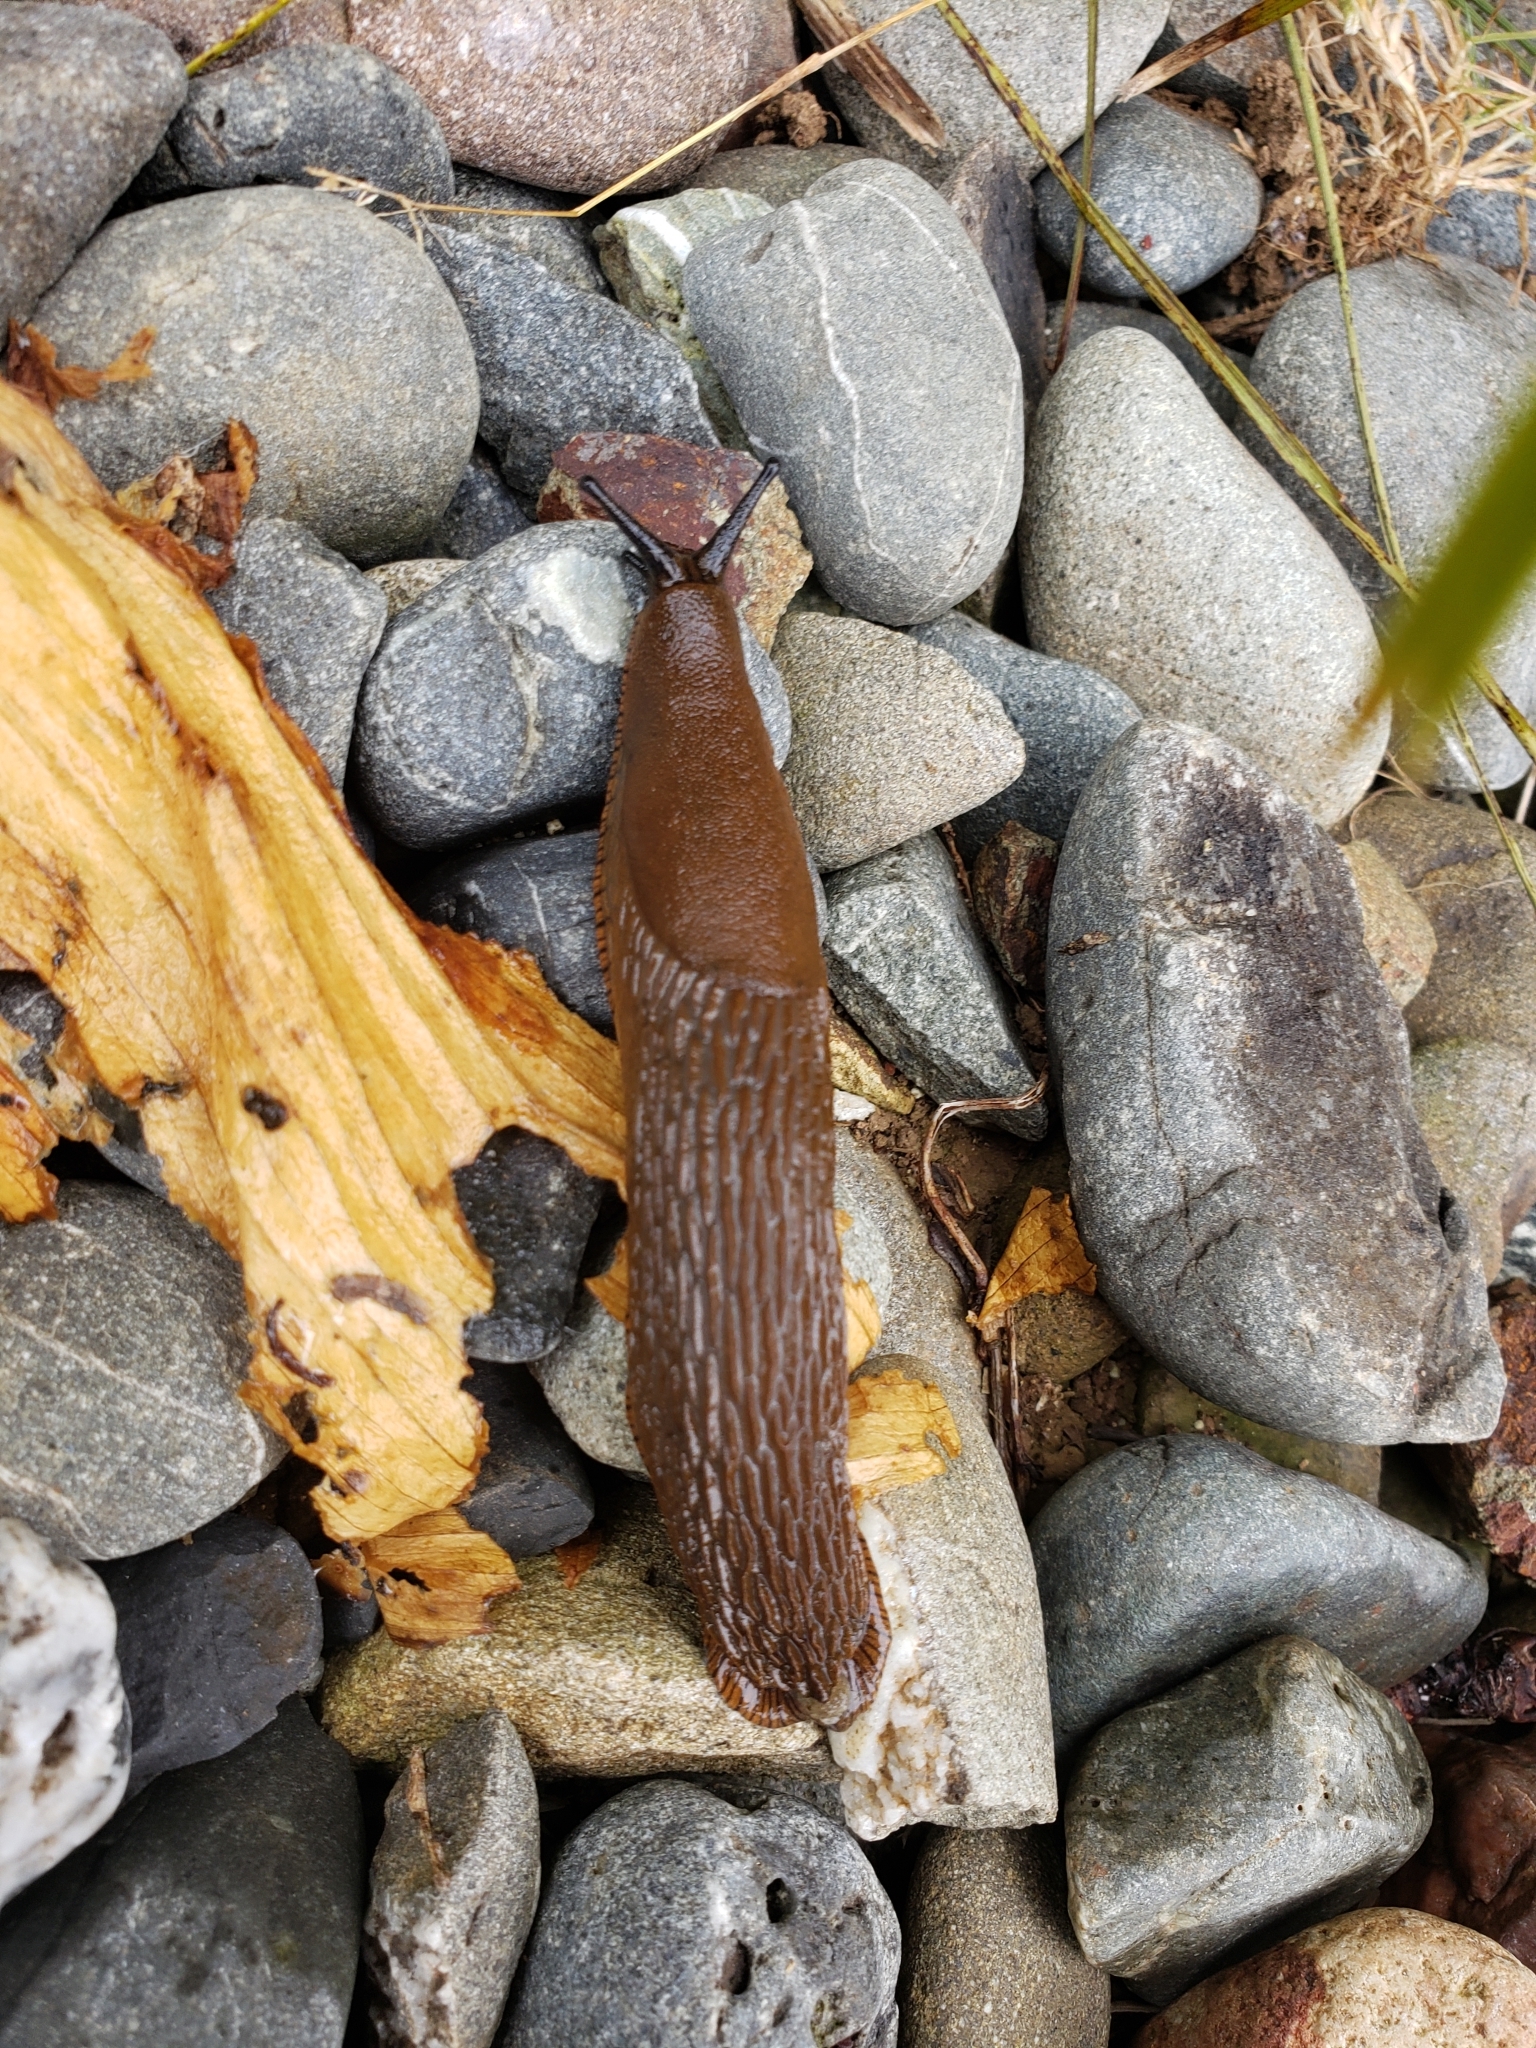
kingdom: Animalia
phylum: Mollusca
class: Gastropoda
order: Stylommatophora
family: Arionidae
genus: Arion
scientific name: Arion rufus
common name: Chocolate arion
